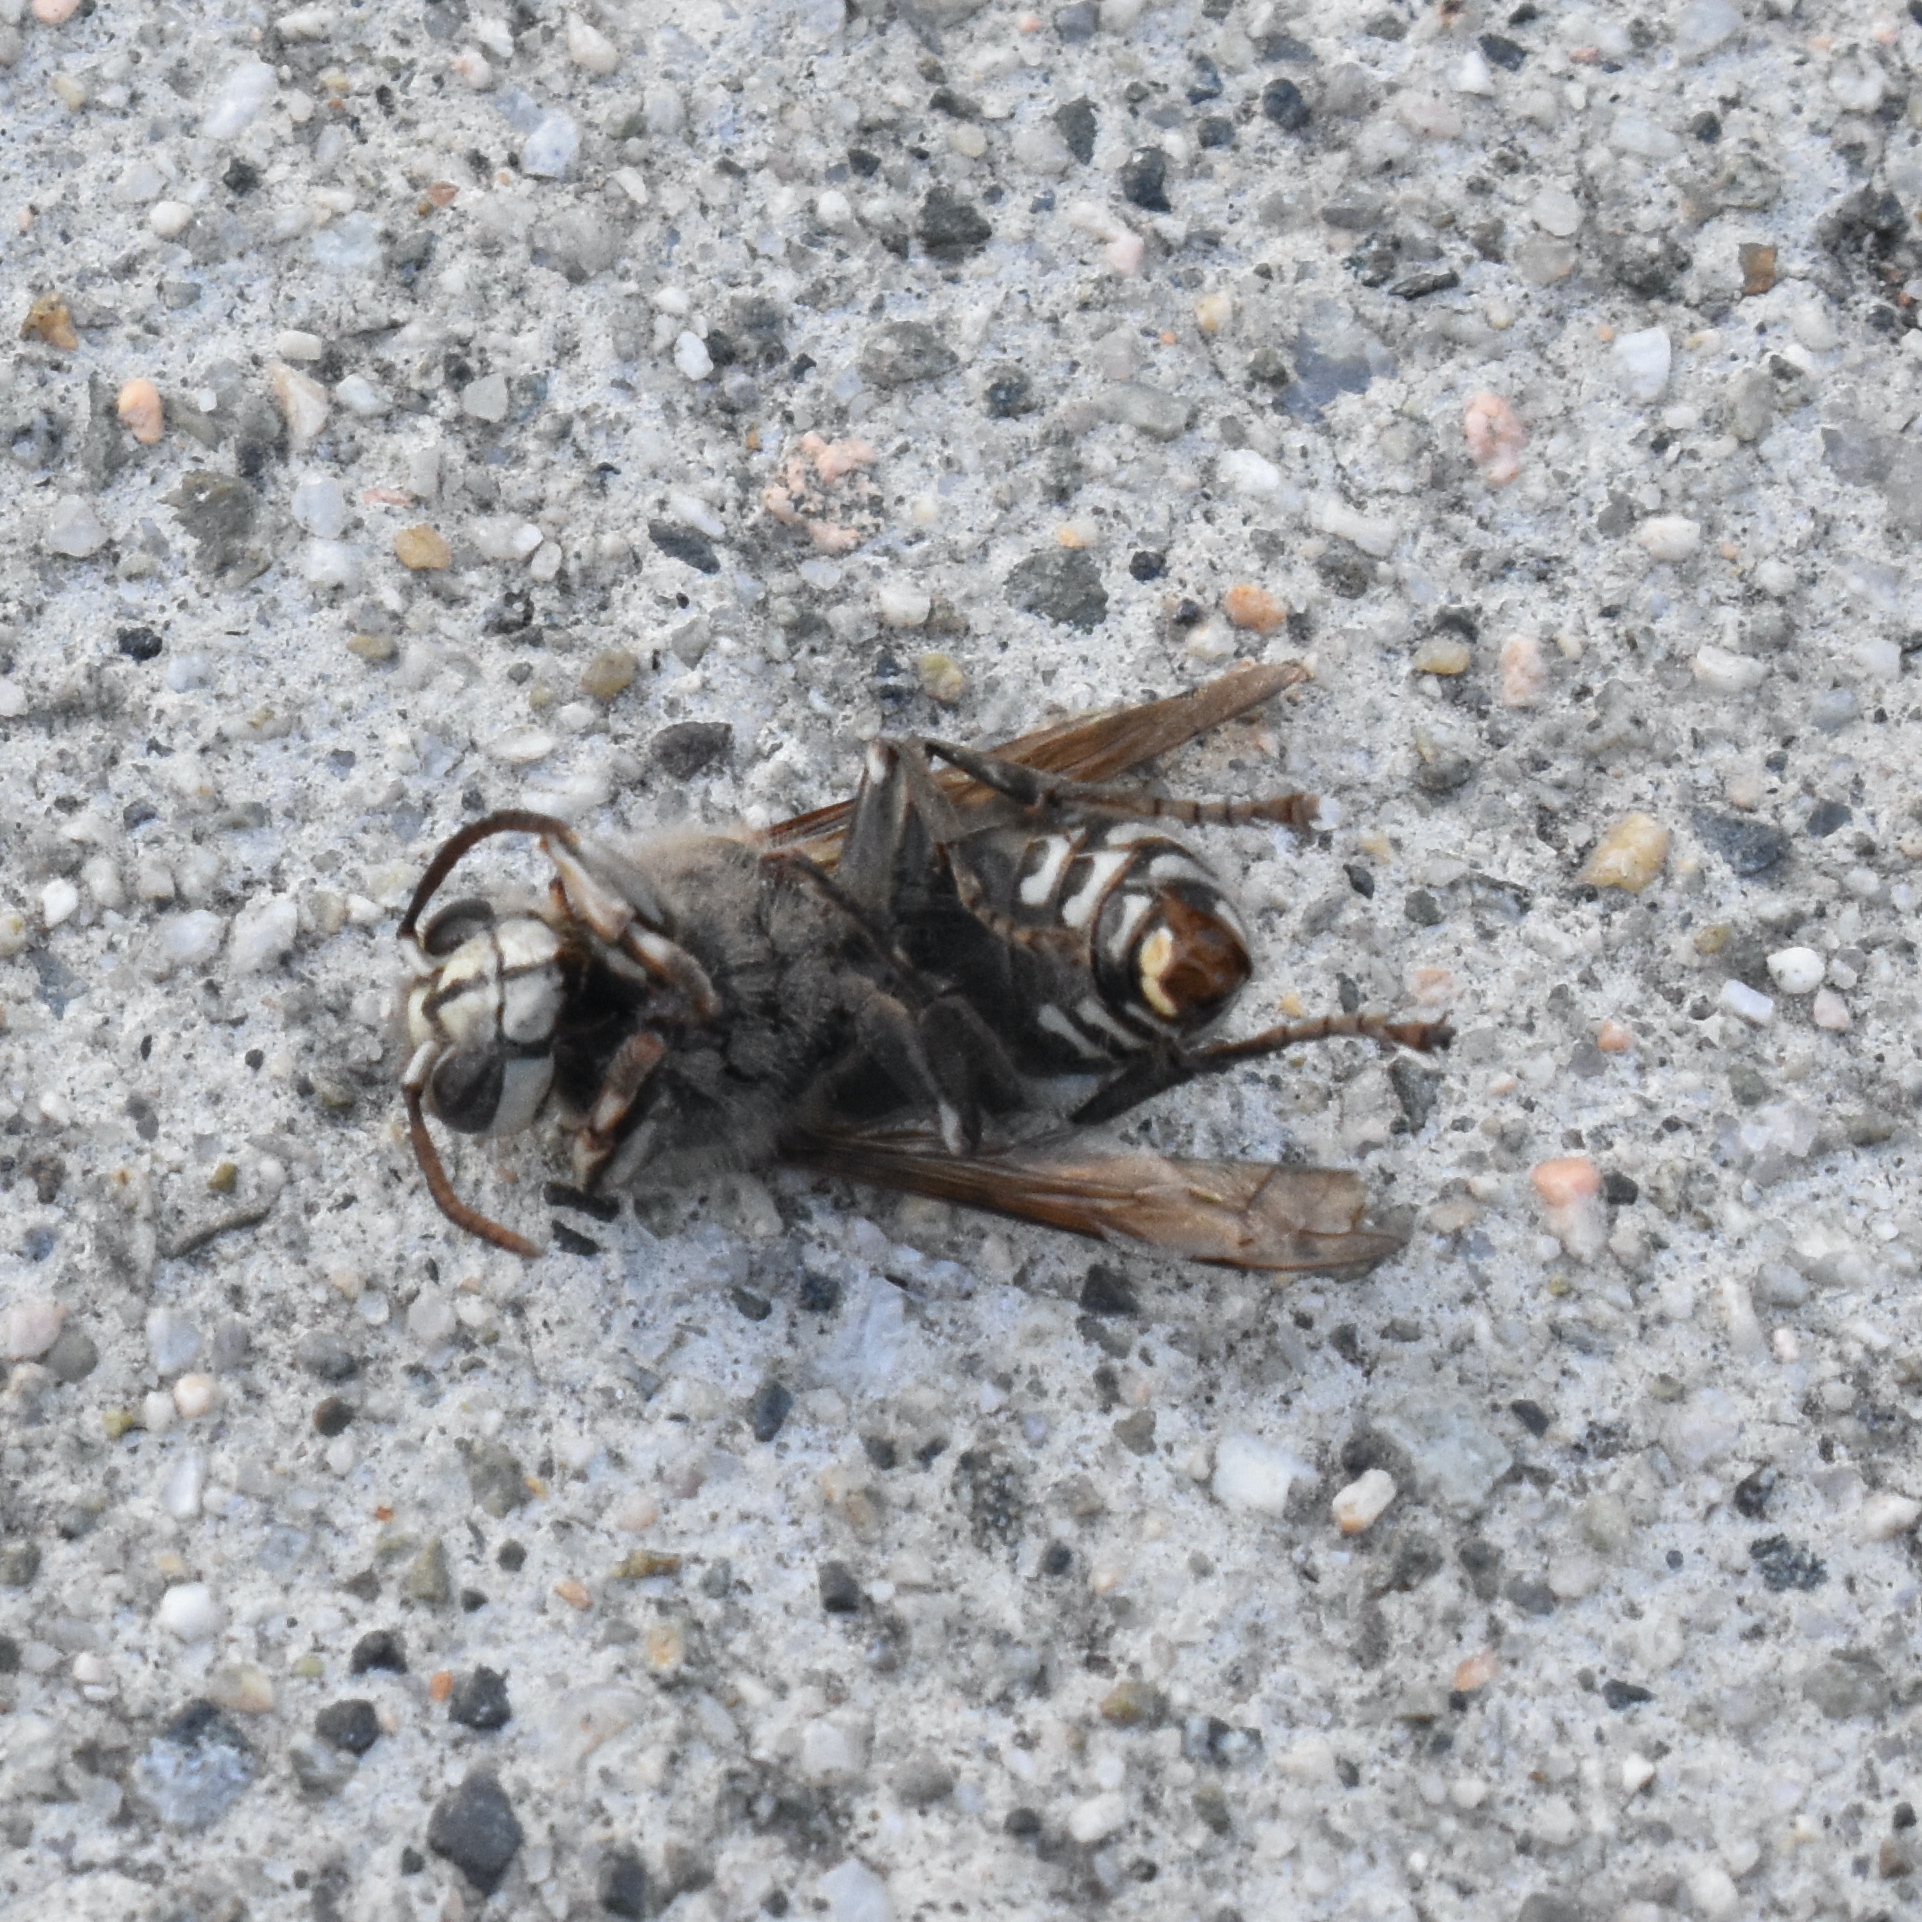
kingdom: Animalia
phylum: Arthropoda
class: Insecta
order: Hymenoptera
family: Vespidae
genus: Dolichovespula
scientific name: Dolichovespula maculata
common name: Bald-faced hornet
